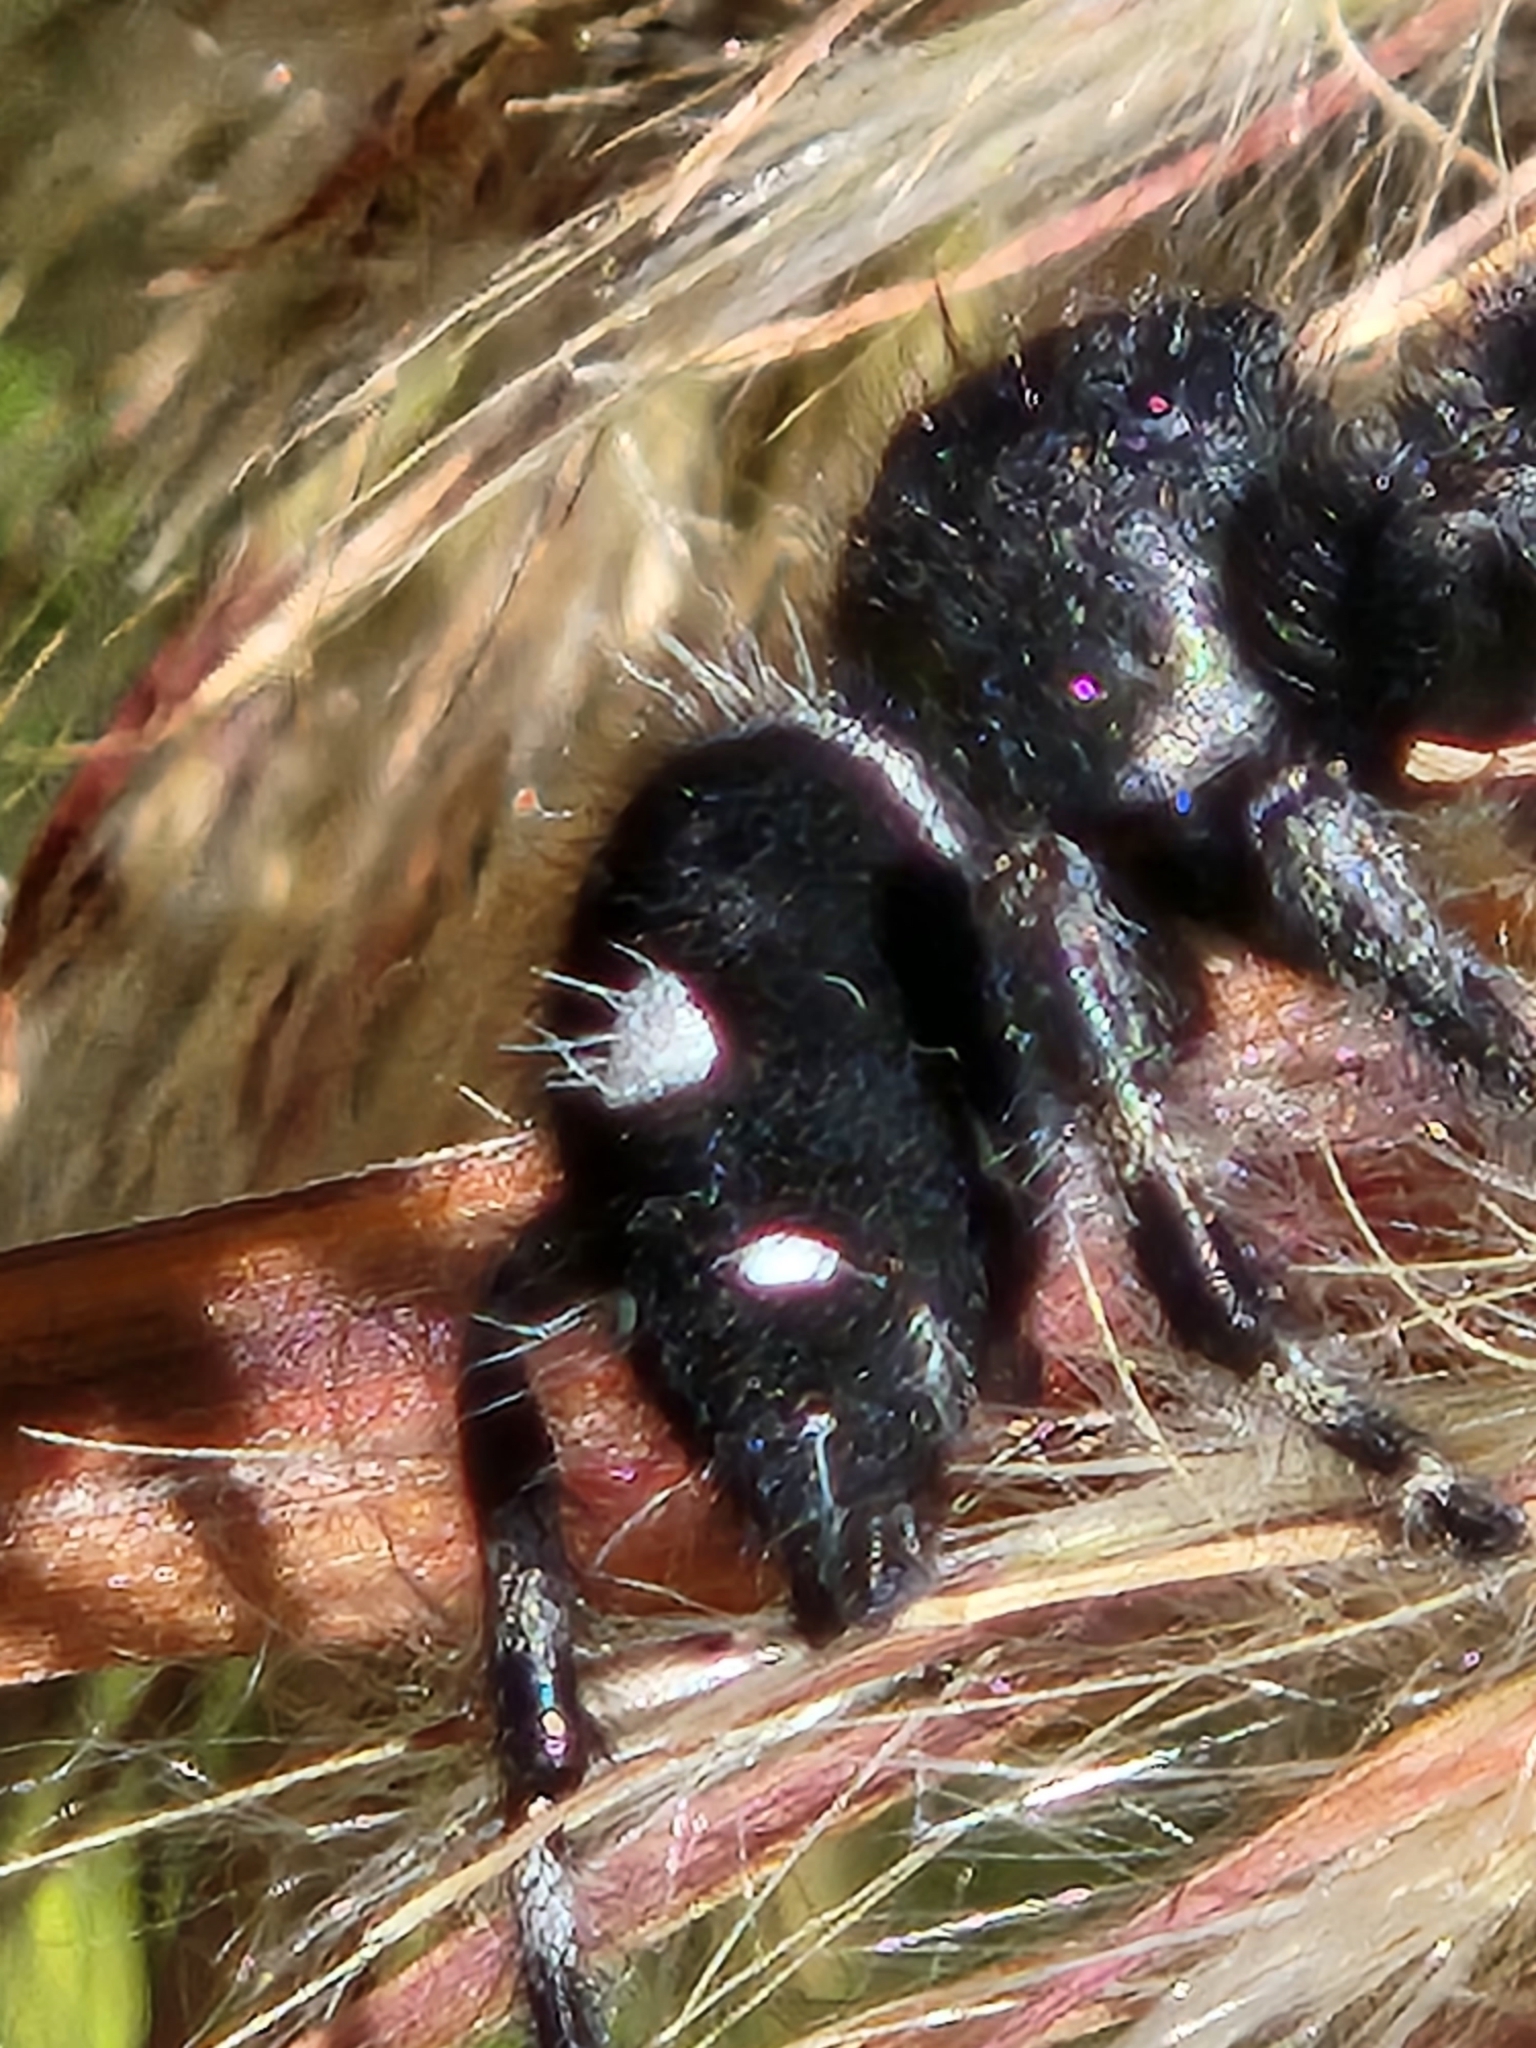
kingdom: Animalia
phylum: Arthropoda
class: Arachnida
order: Araneae
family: Salticidae
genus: Phidippus
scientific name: Phidippus audax
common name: Bold jumper
